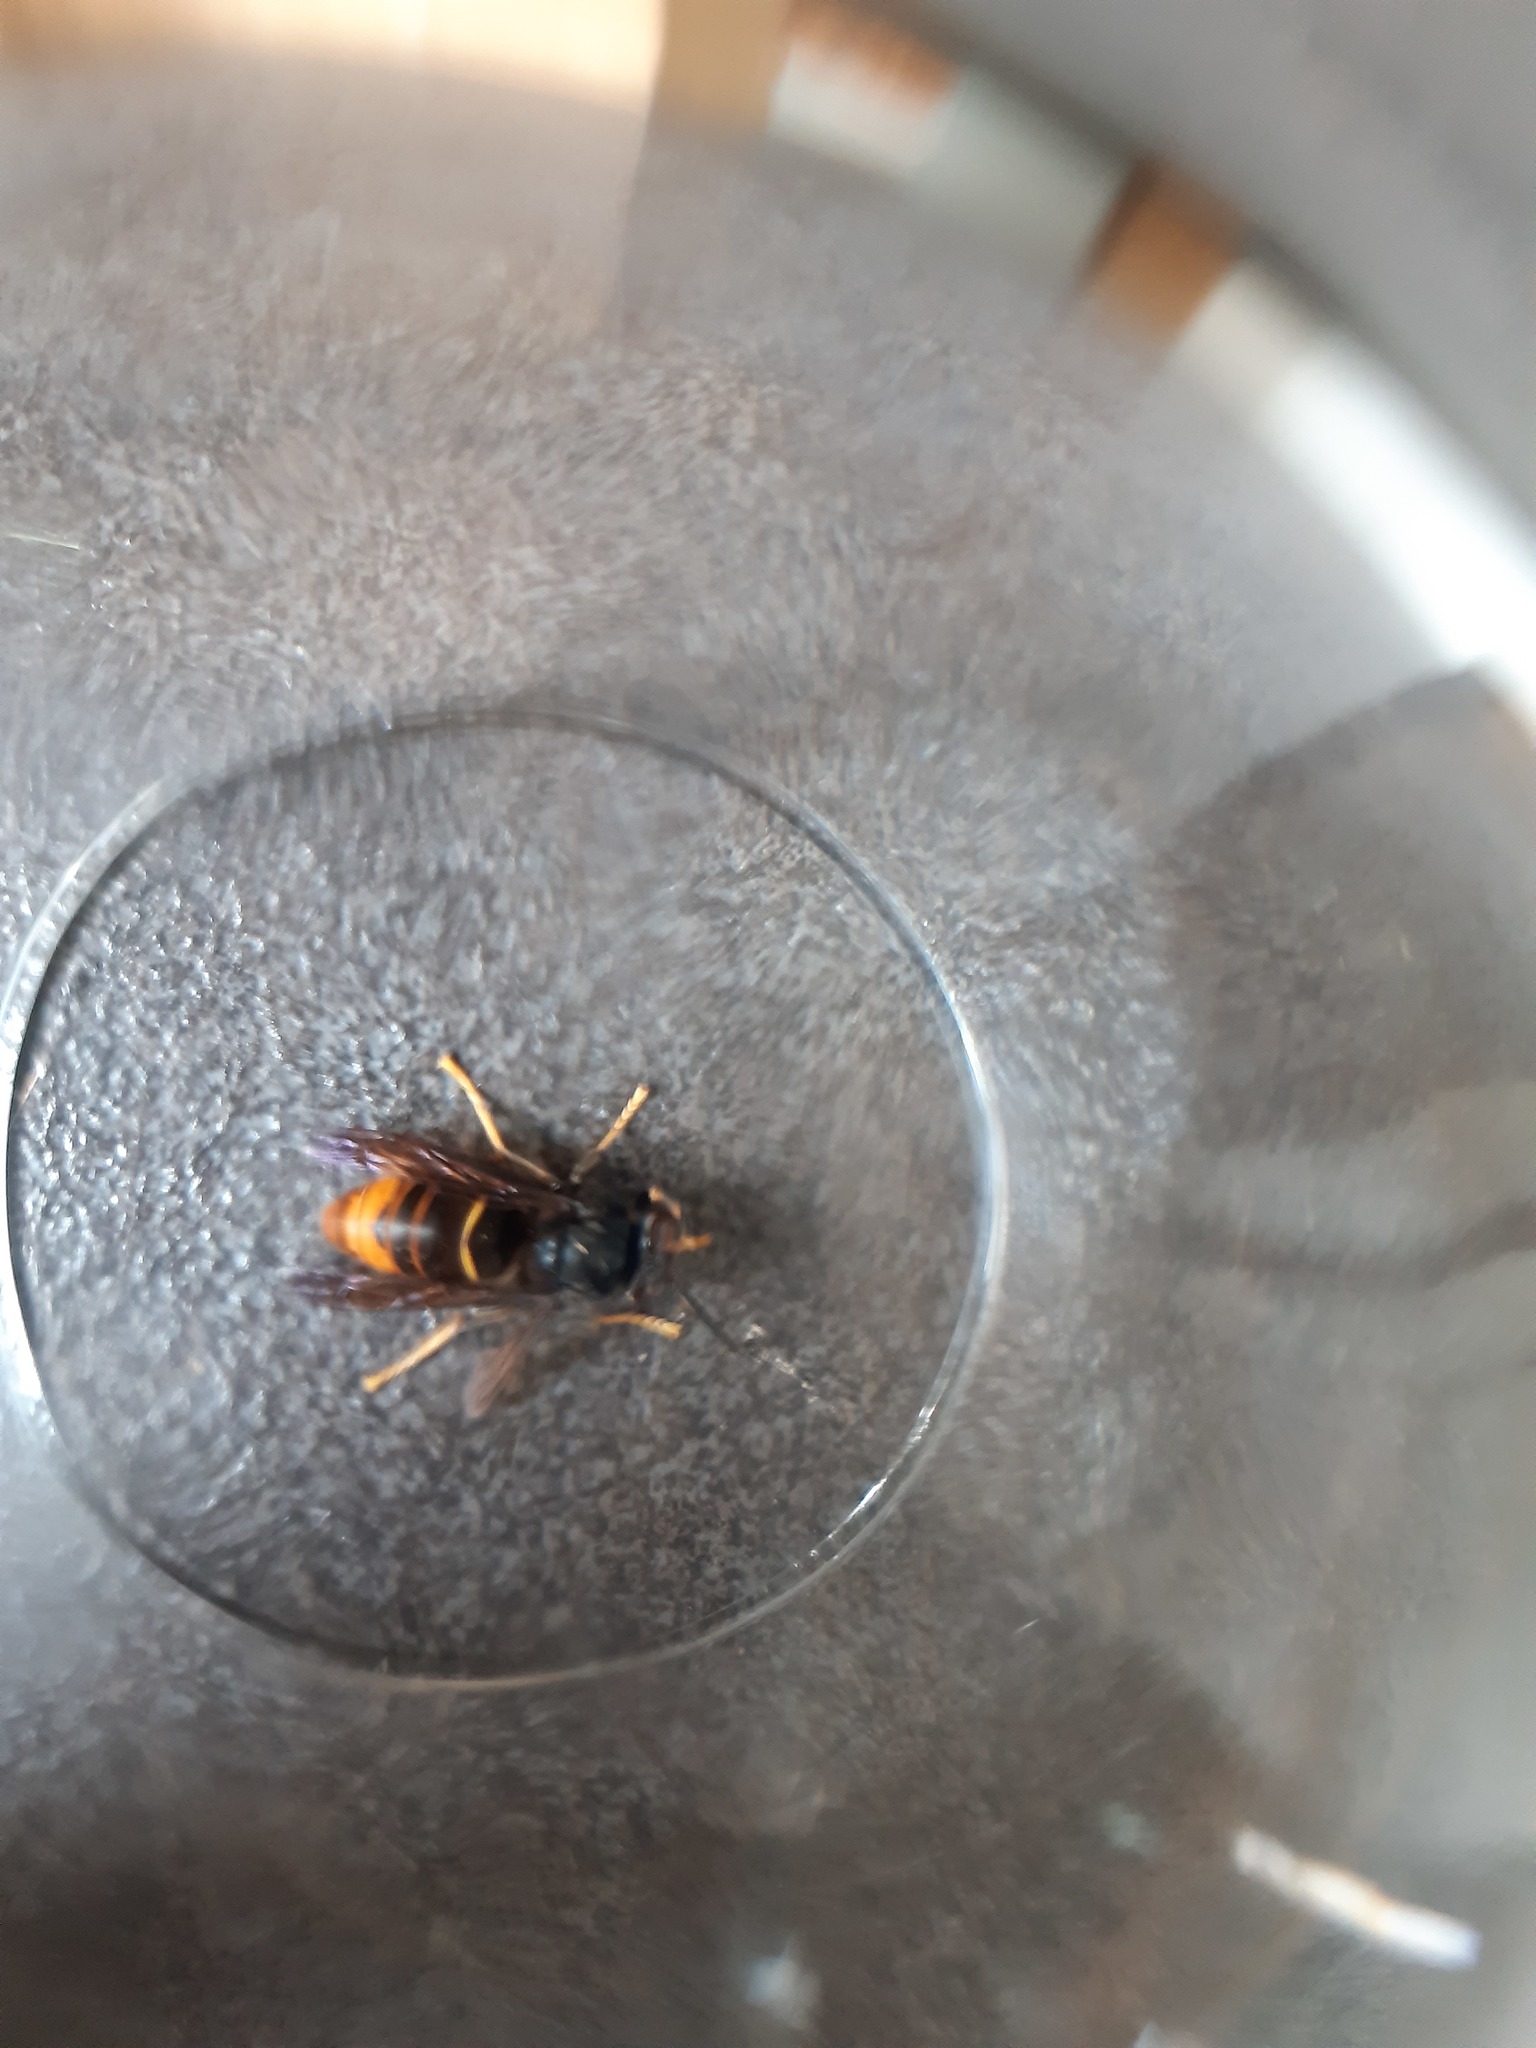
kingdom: Animalia
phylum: Arthropoda
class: Insecta
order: Hymenoptera
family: Vespidae
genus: Vespa
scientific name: Vespa velutina
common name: Asian hornet
